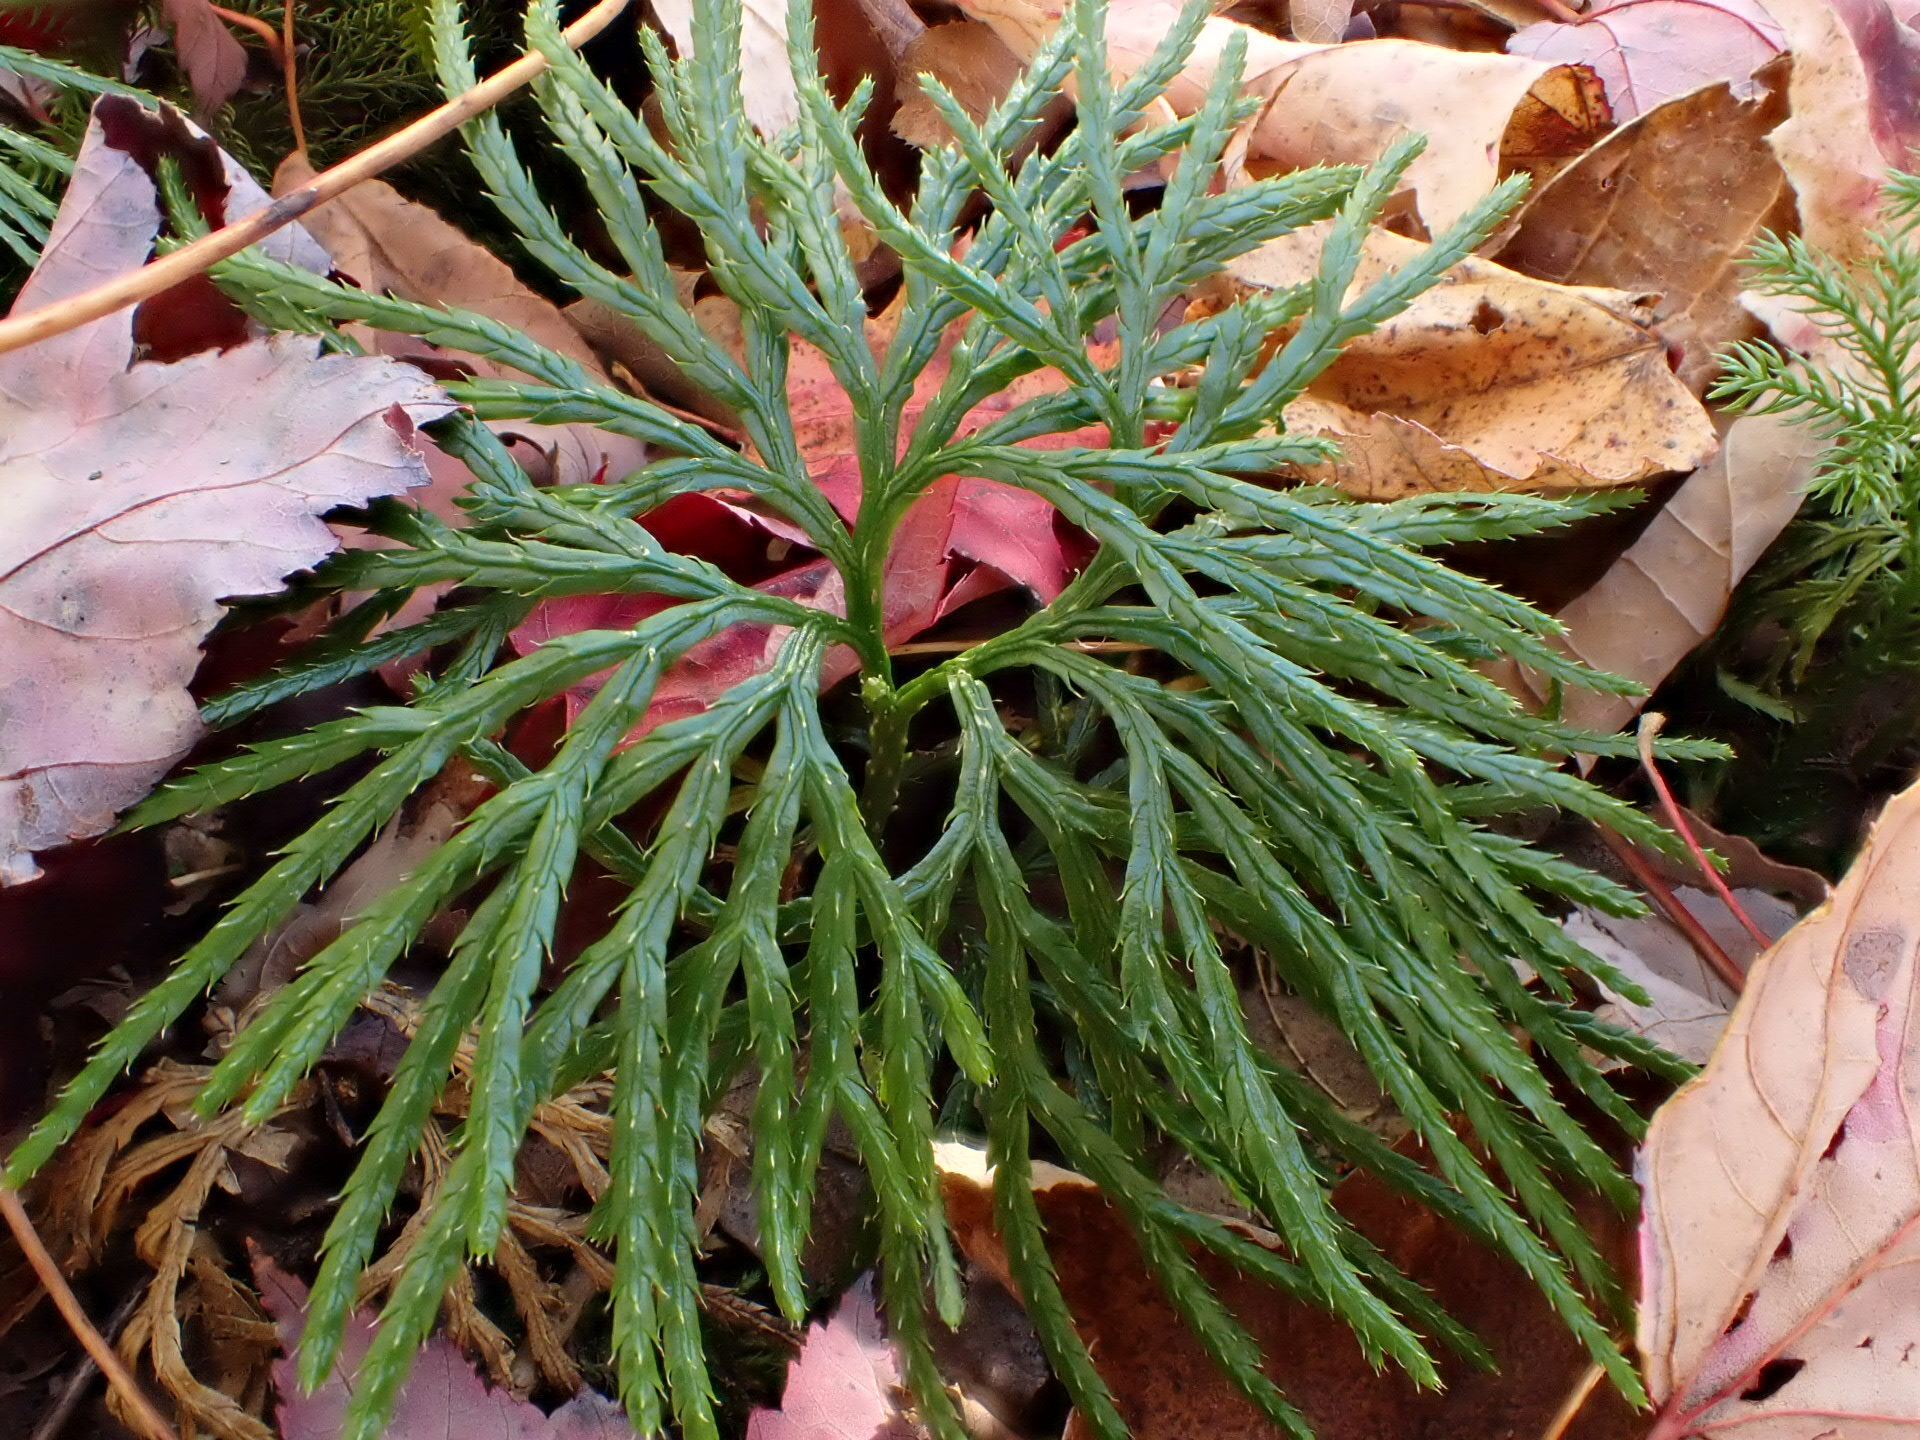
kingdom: Plantae
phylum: Tracheophyta
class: Lycopodiopsida
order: Lycopodiales
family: Lycopodiaceae
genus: Diphasiastrum
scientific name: Diphasiastrum digitatum
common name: Southern running-pine
